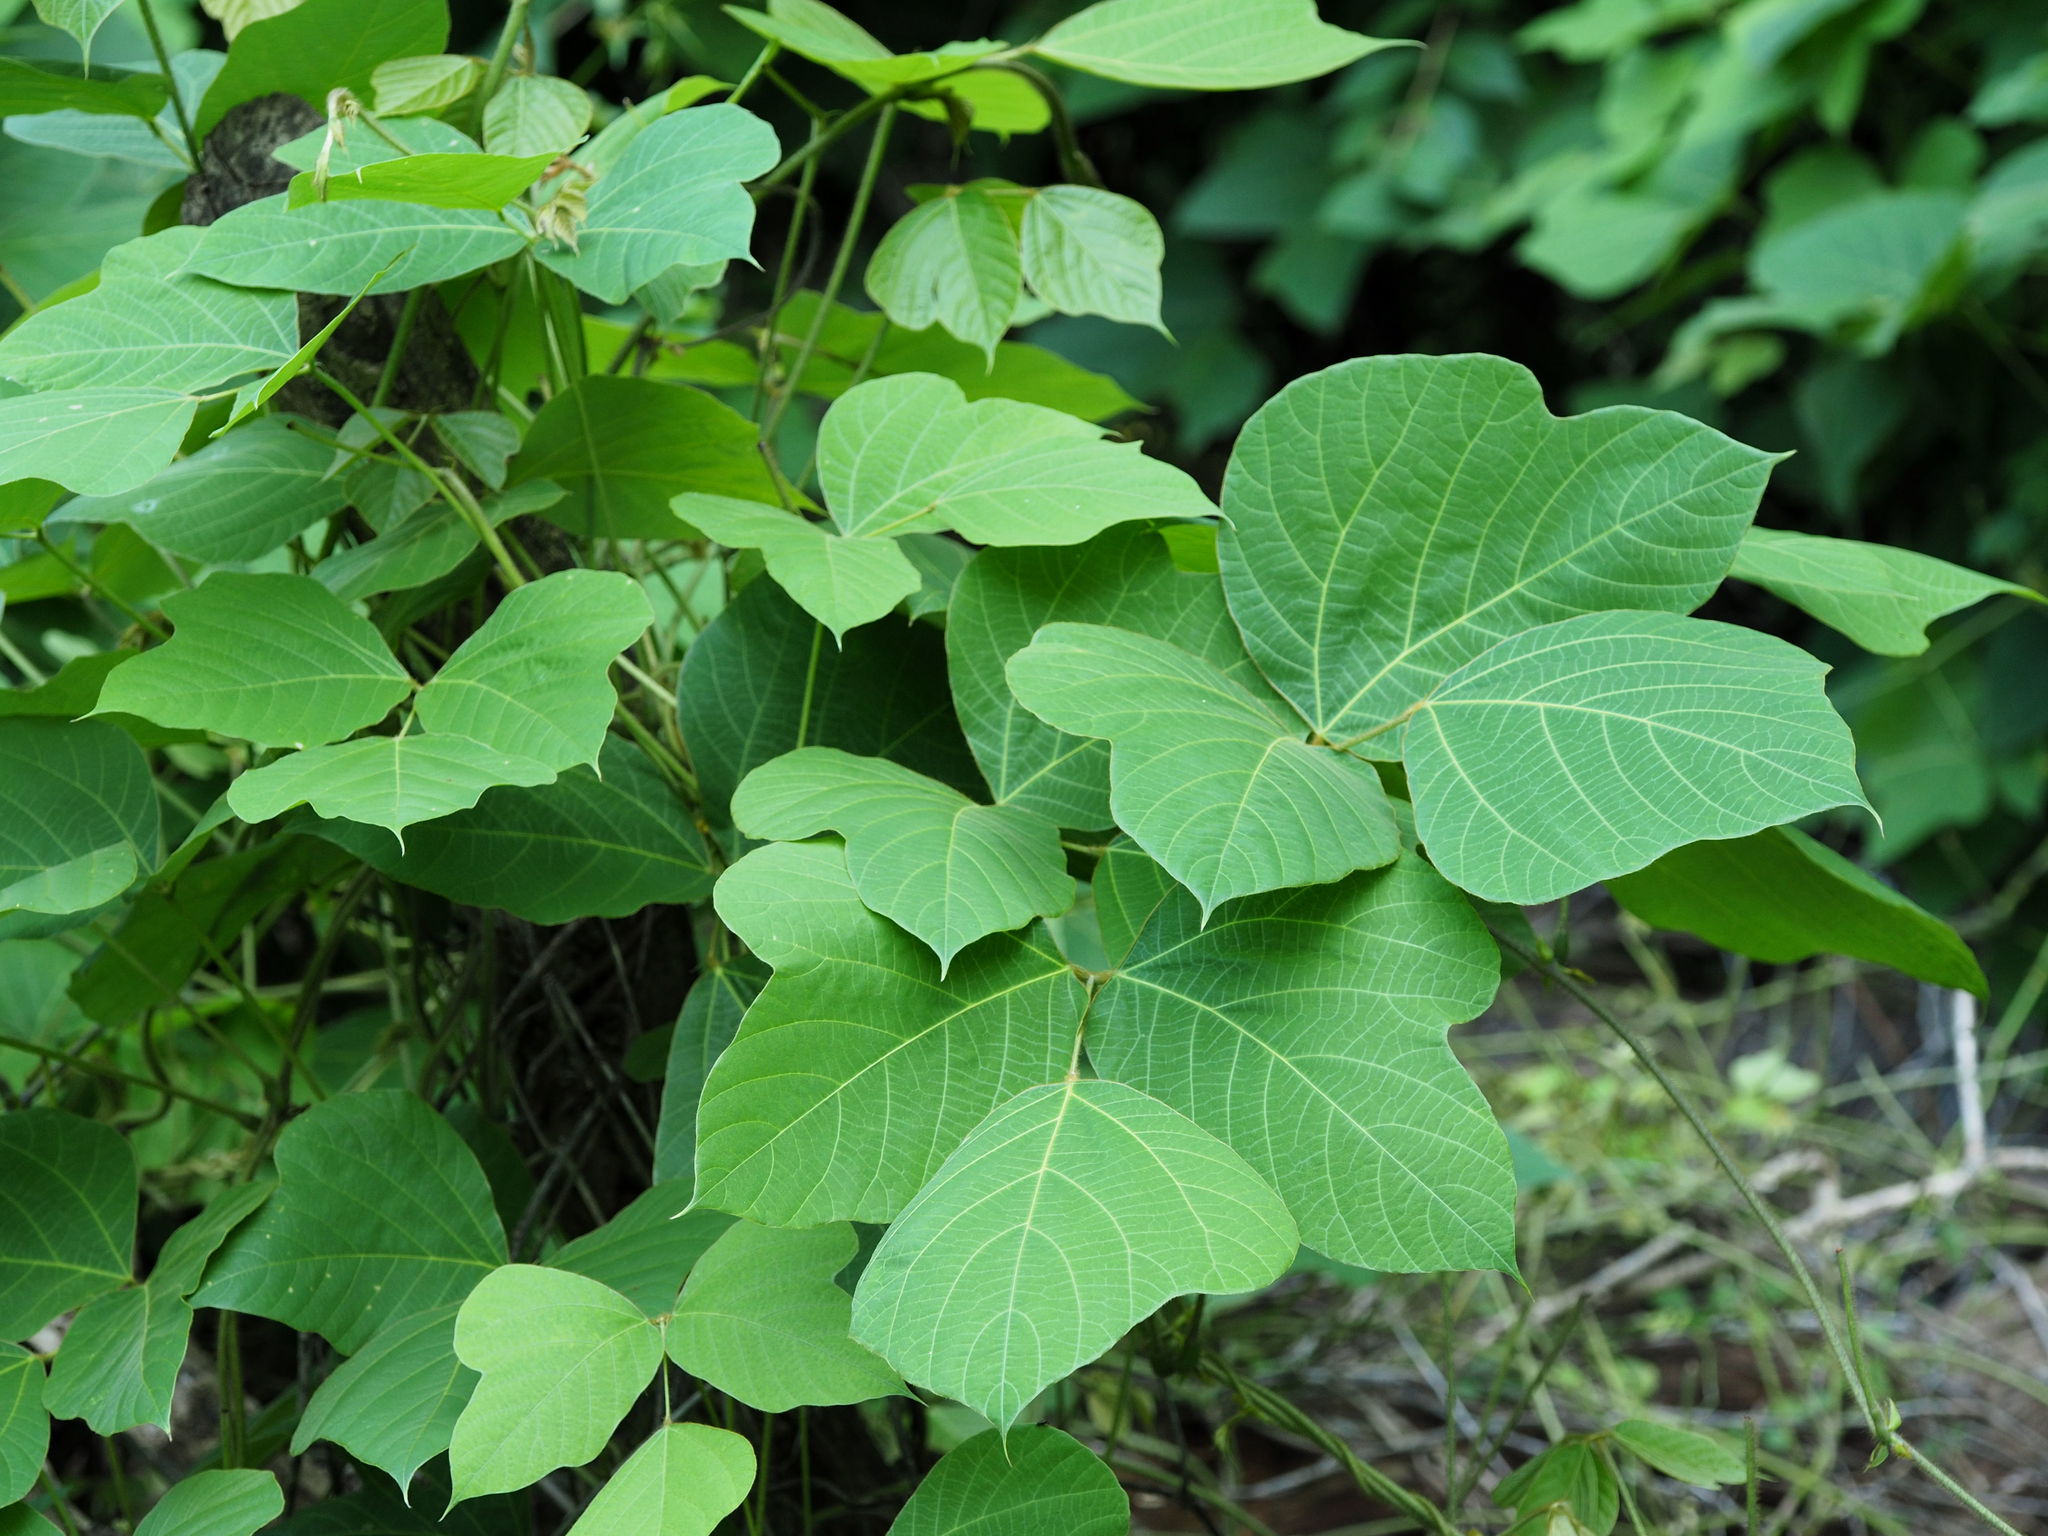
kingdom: Plantae
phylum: Tracheophyta
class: Magnoliopsida
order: Fabales
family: Fabaceae
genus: Pueraria
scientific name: Pueraria montana
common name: Kudzu
